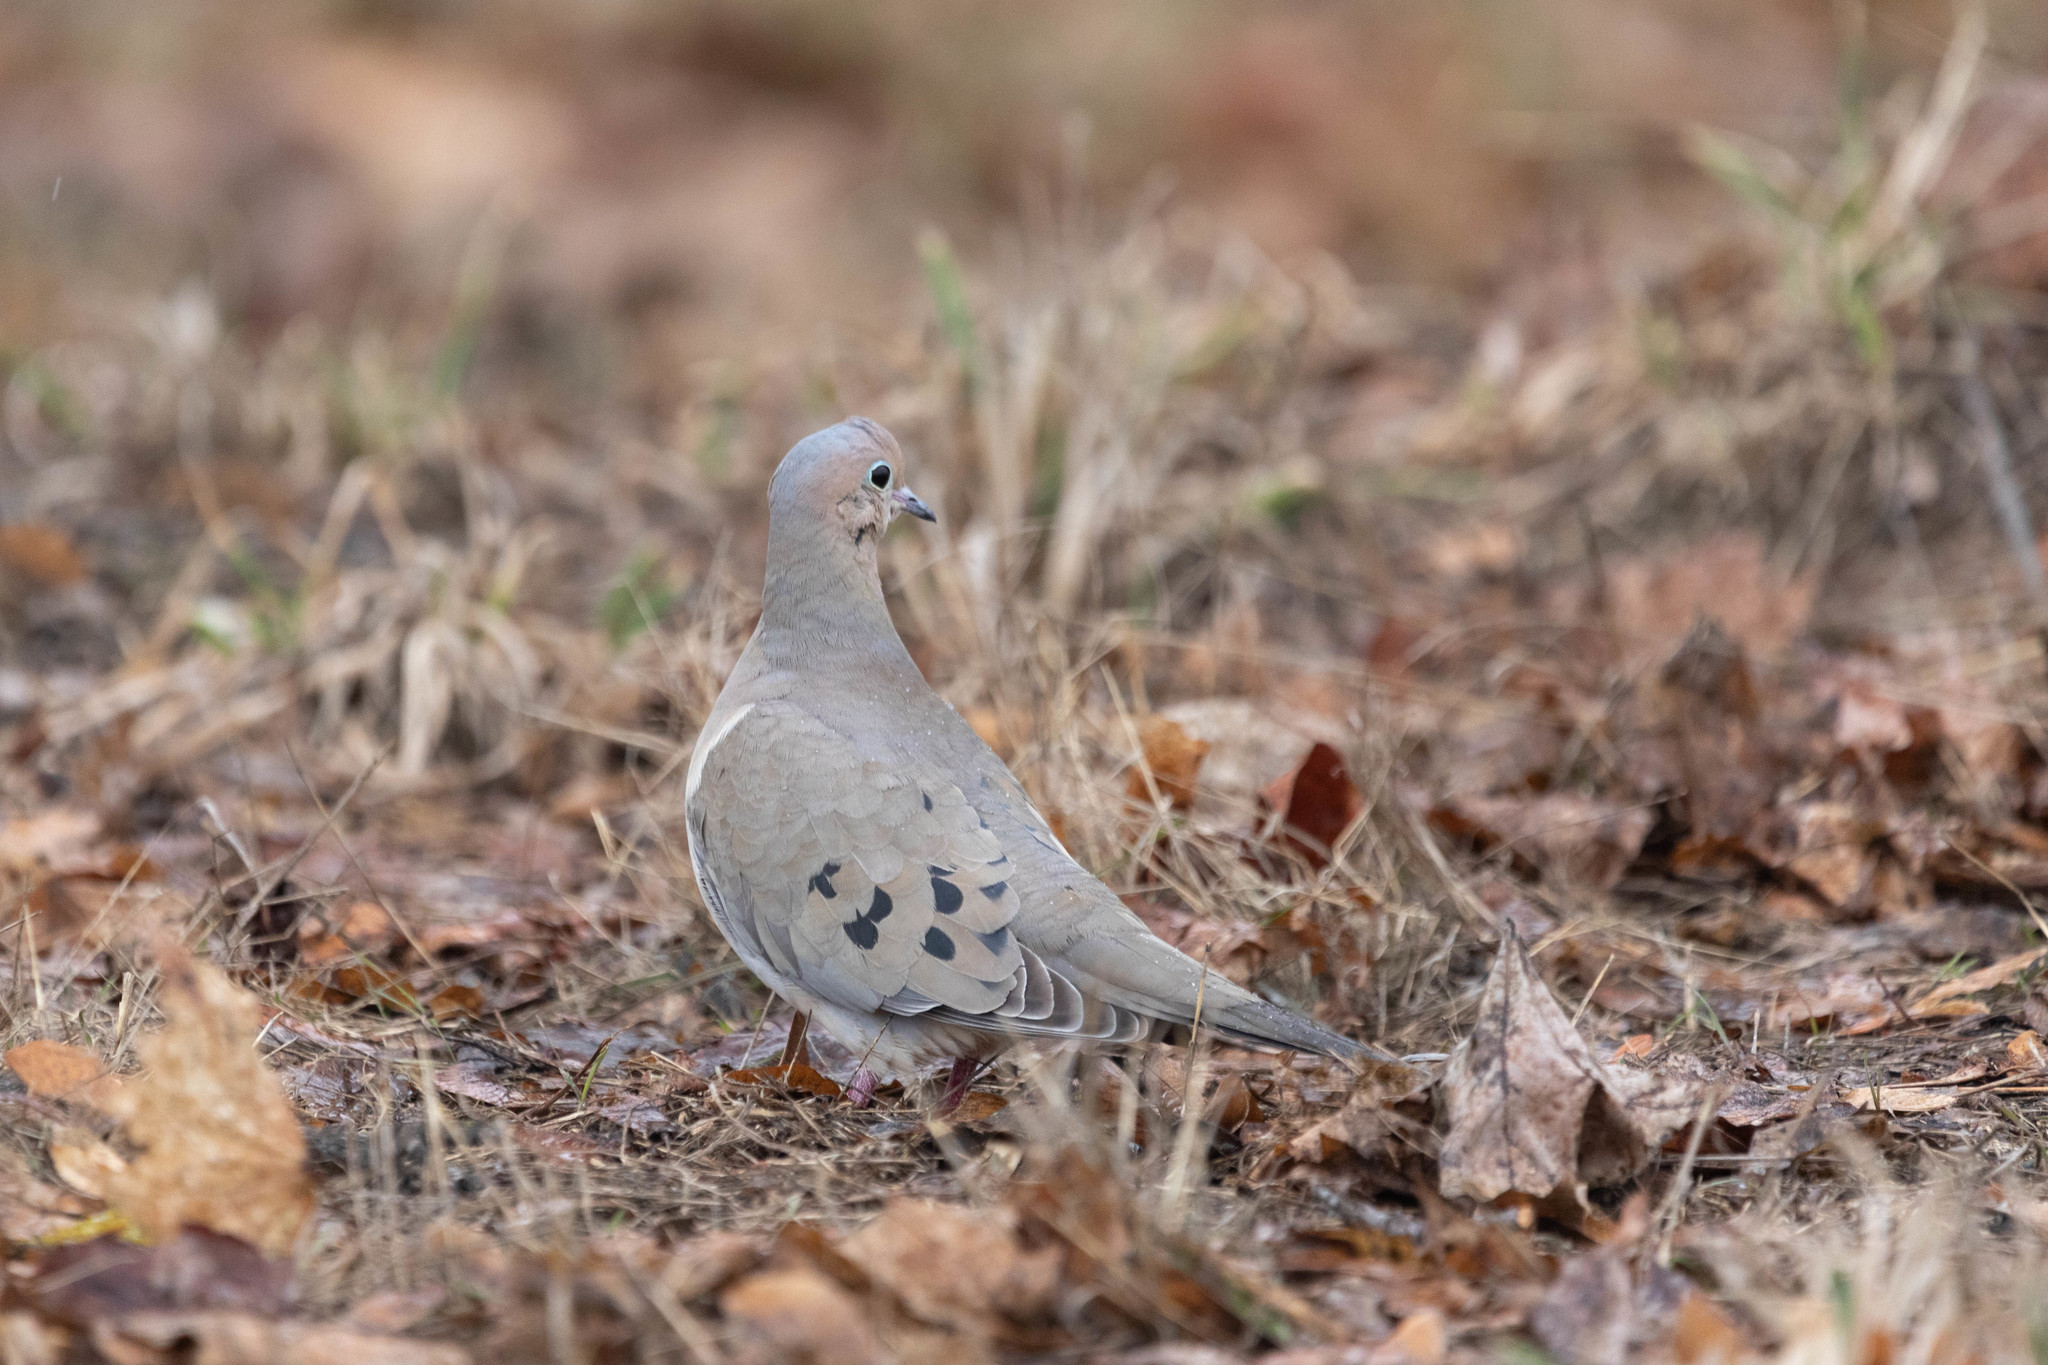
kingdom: Animalia
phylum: Chordata
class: Aves
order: Columbiformes
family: Columbidae
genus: Zenaida
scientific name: Zenaida macroura
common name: Mourning dove
